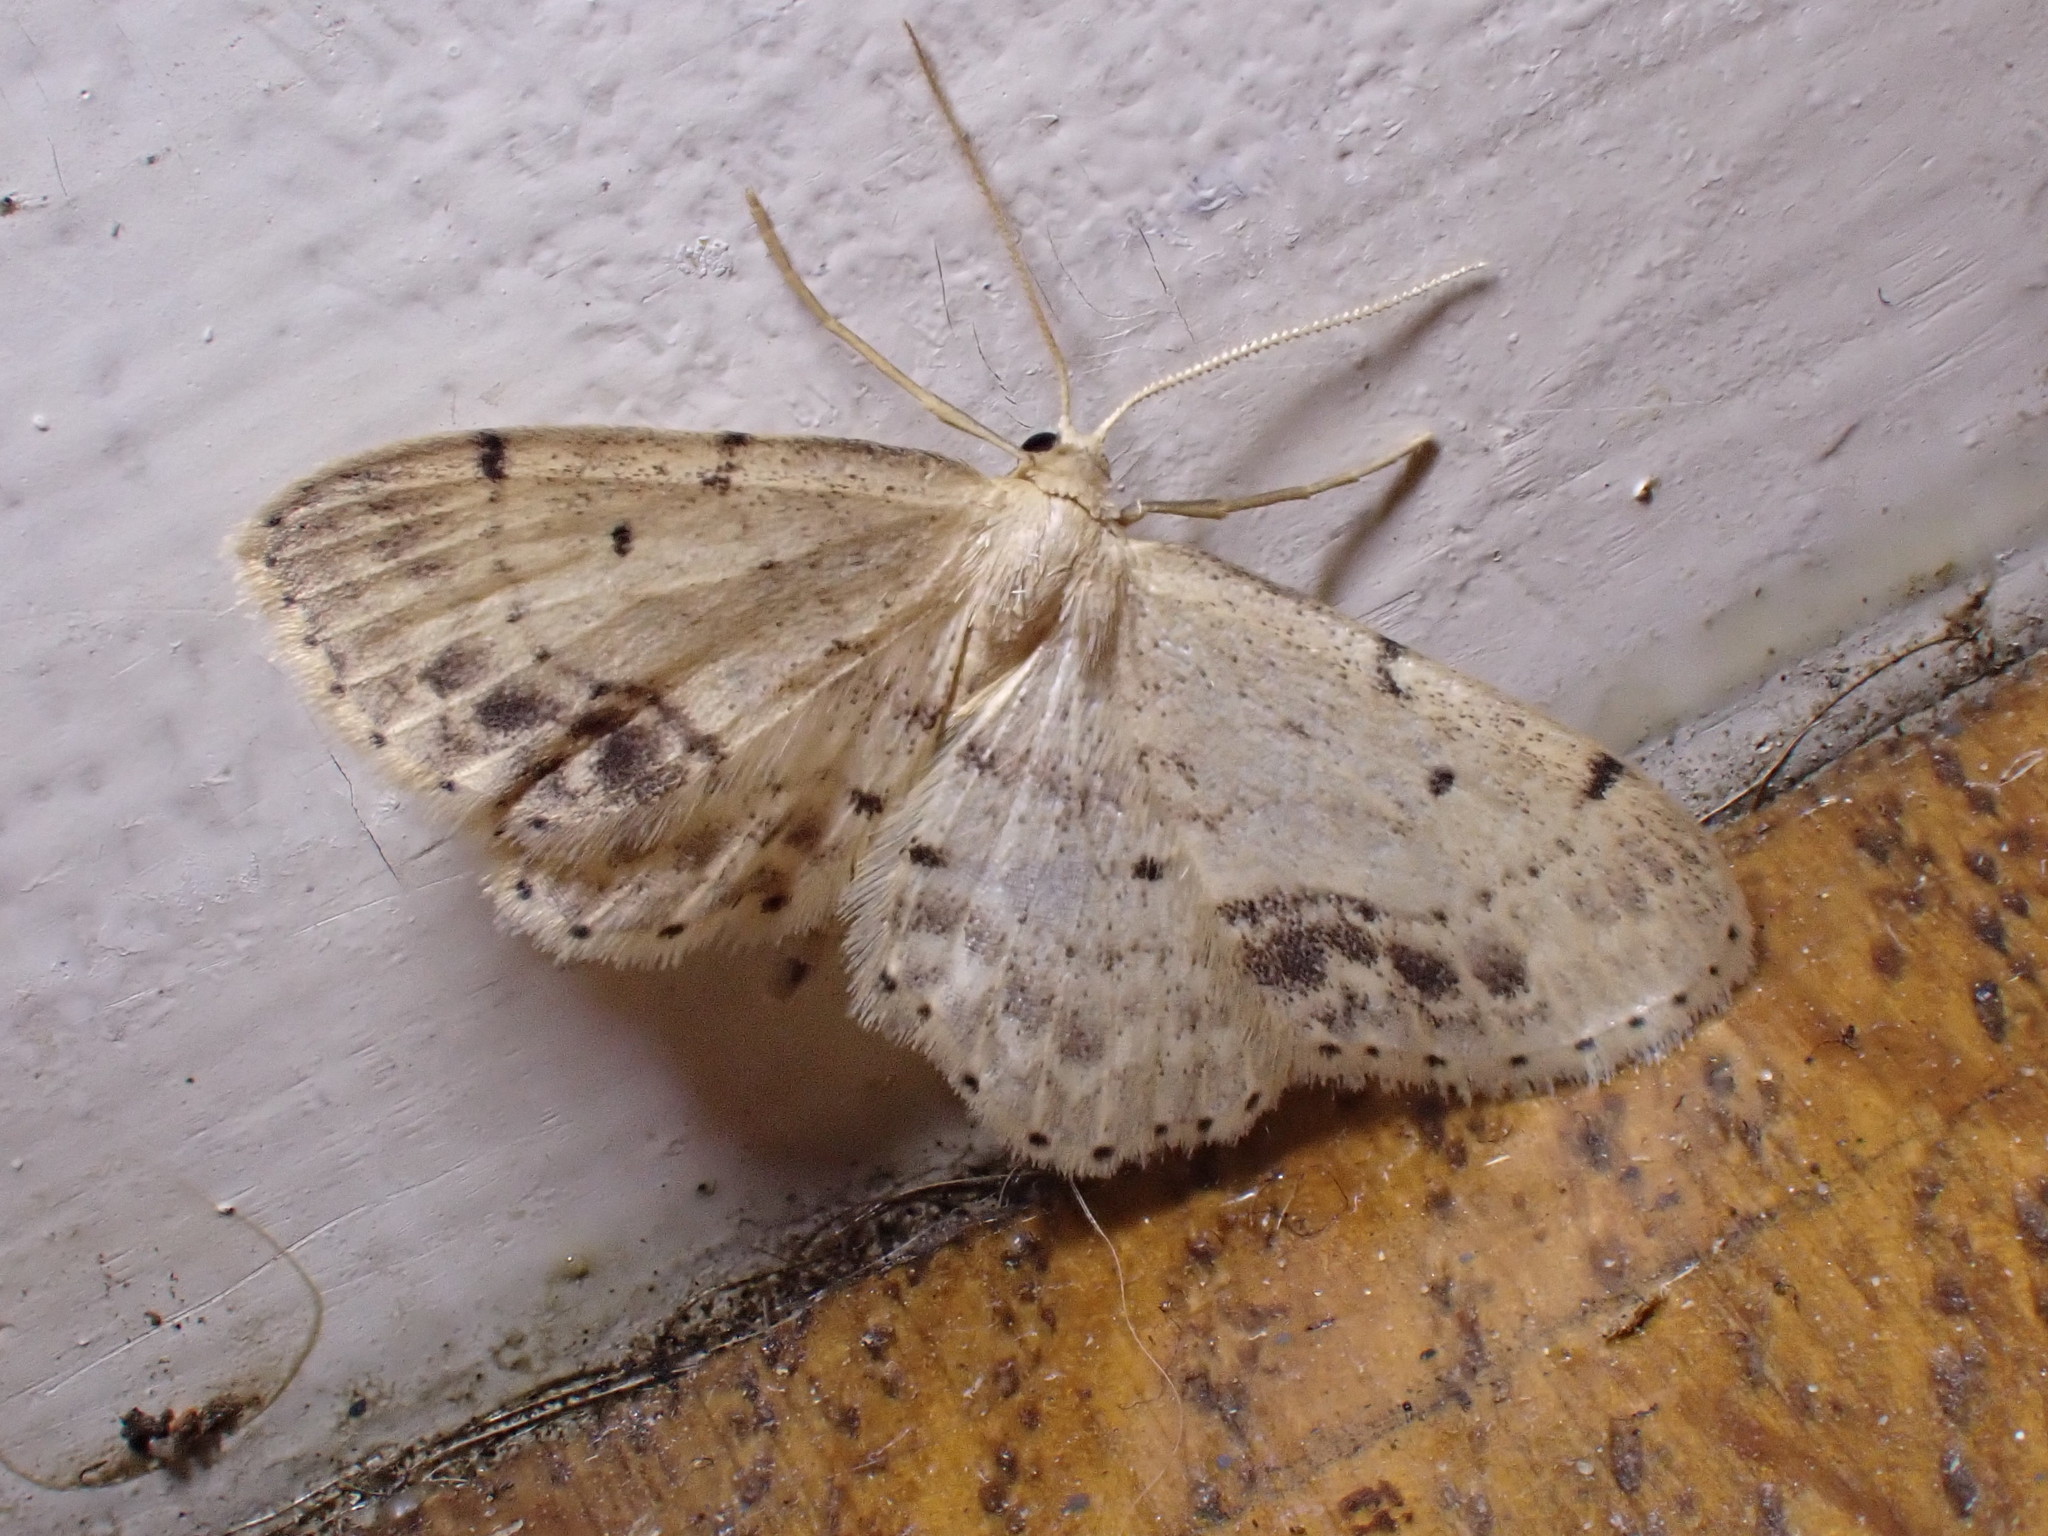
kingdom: Animalia
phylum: Arthropoda
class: Insecta
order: Lepidoptera
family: Geometridae
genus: Idaea
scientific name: Idaea dimidiata
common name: Single-dotted wave
